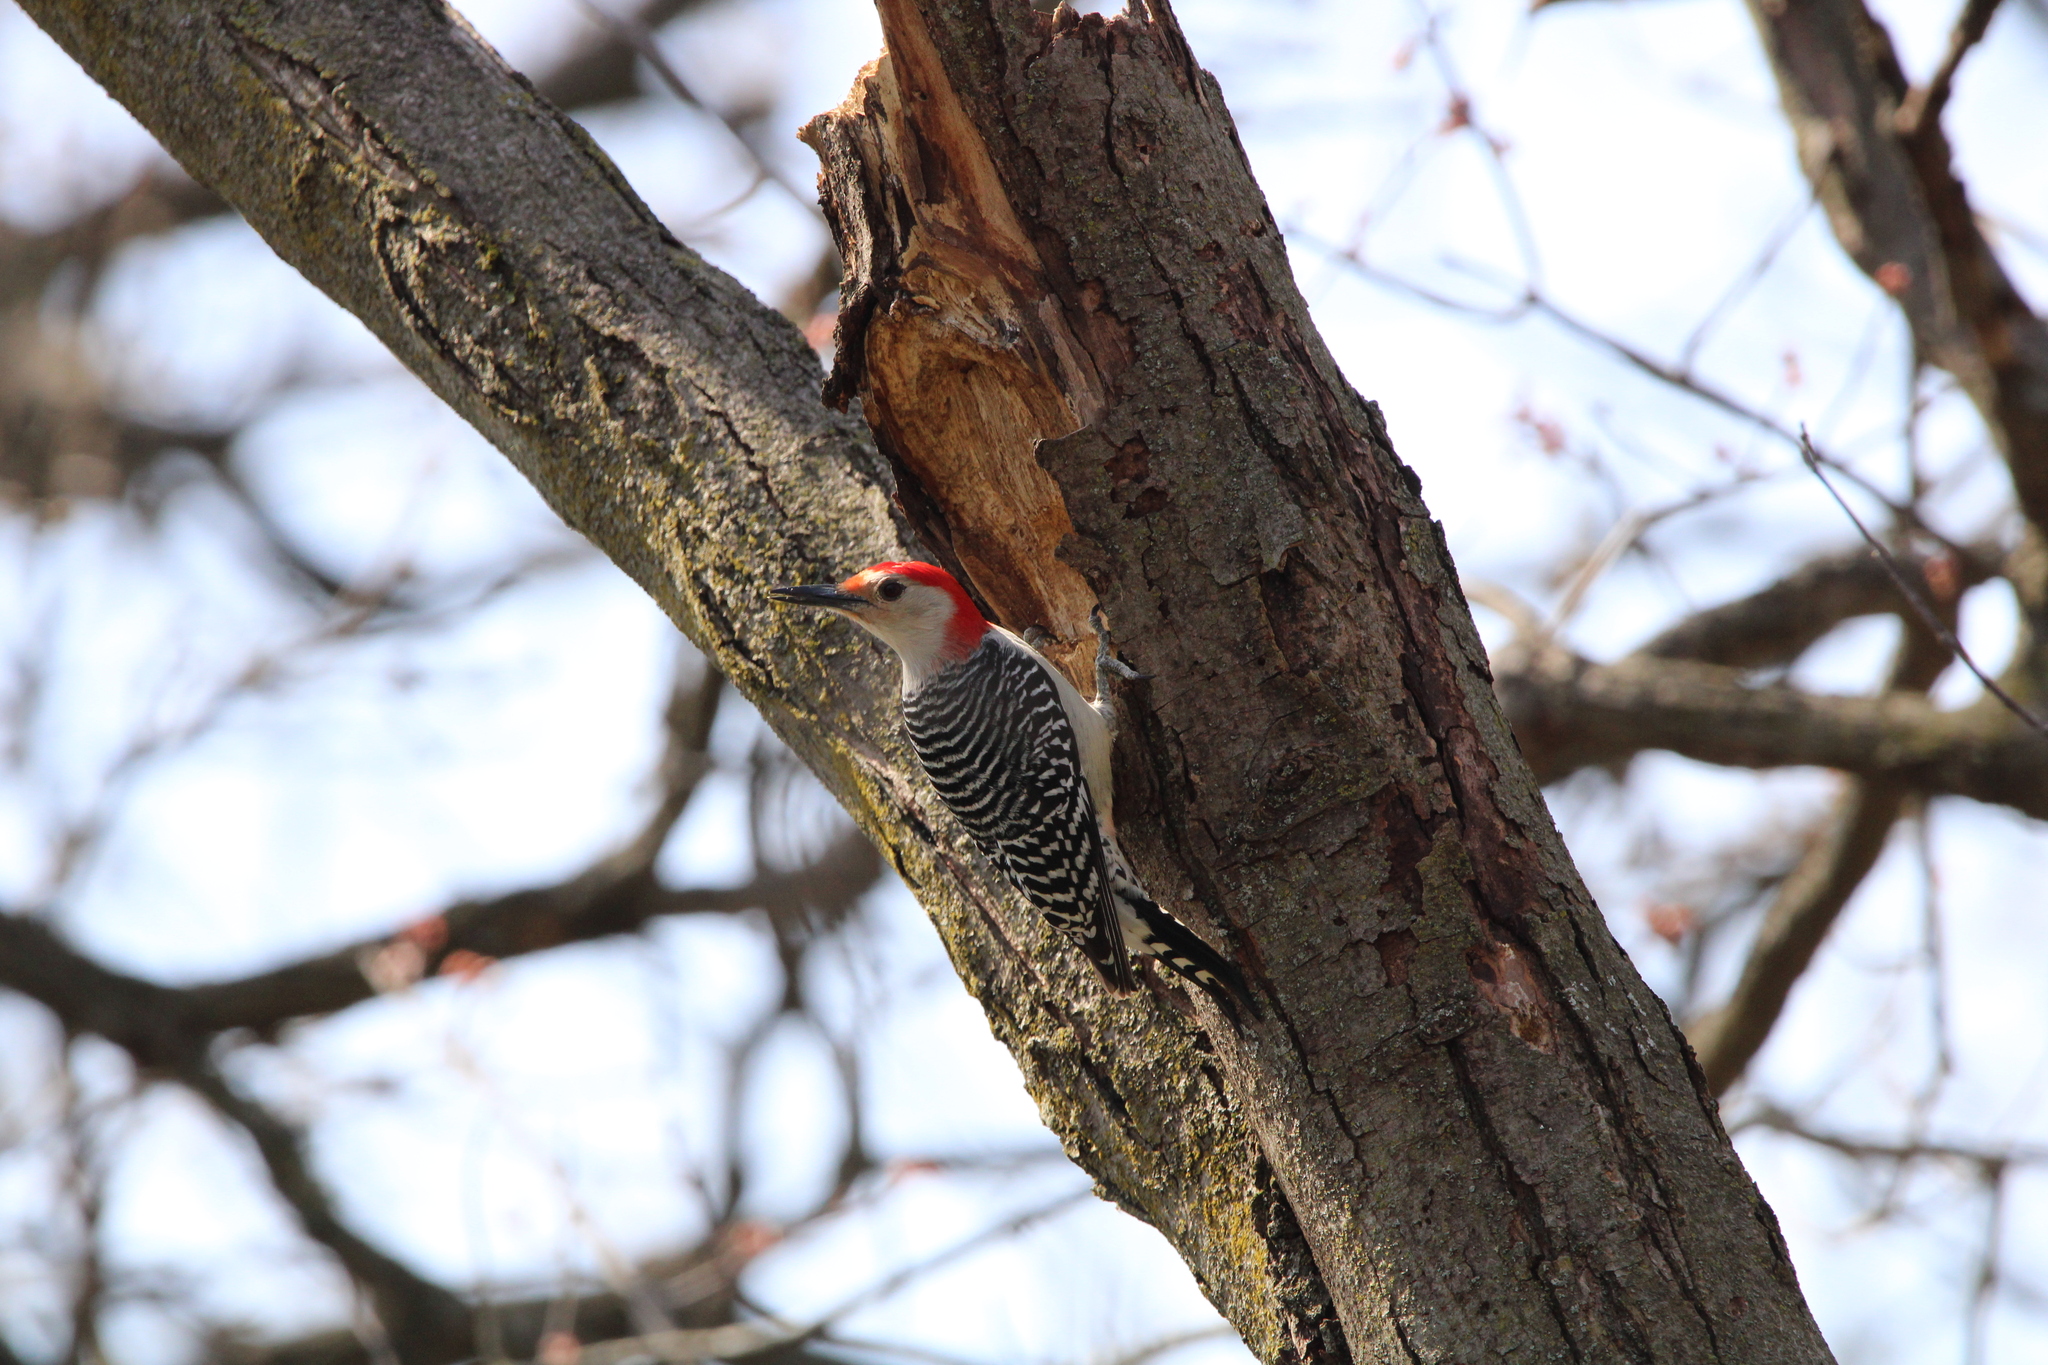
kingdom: Animalia
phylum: Chordata
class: Aves
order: Piciformes
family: Picidae
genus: Melanerpes
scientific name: Melanerpes carolinus
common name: Red-bellied woodpecker
